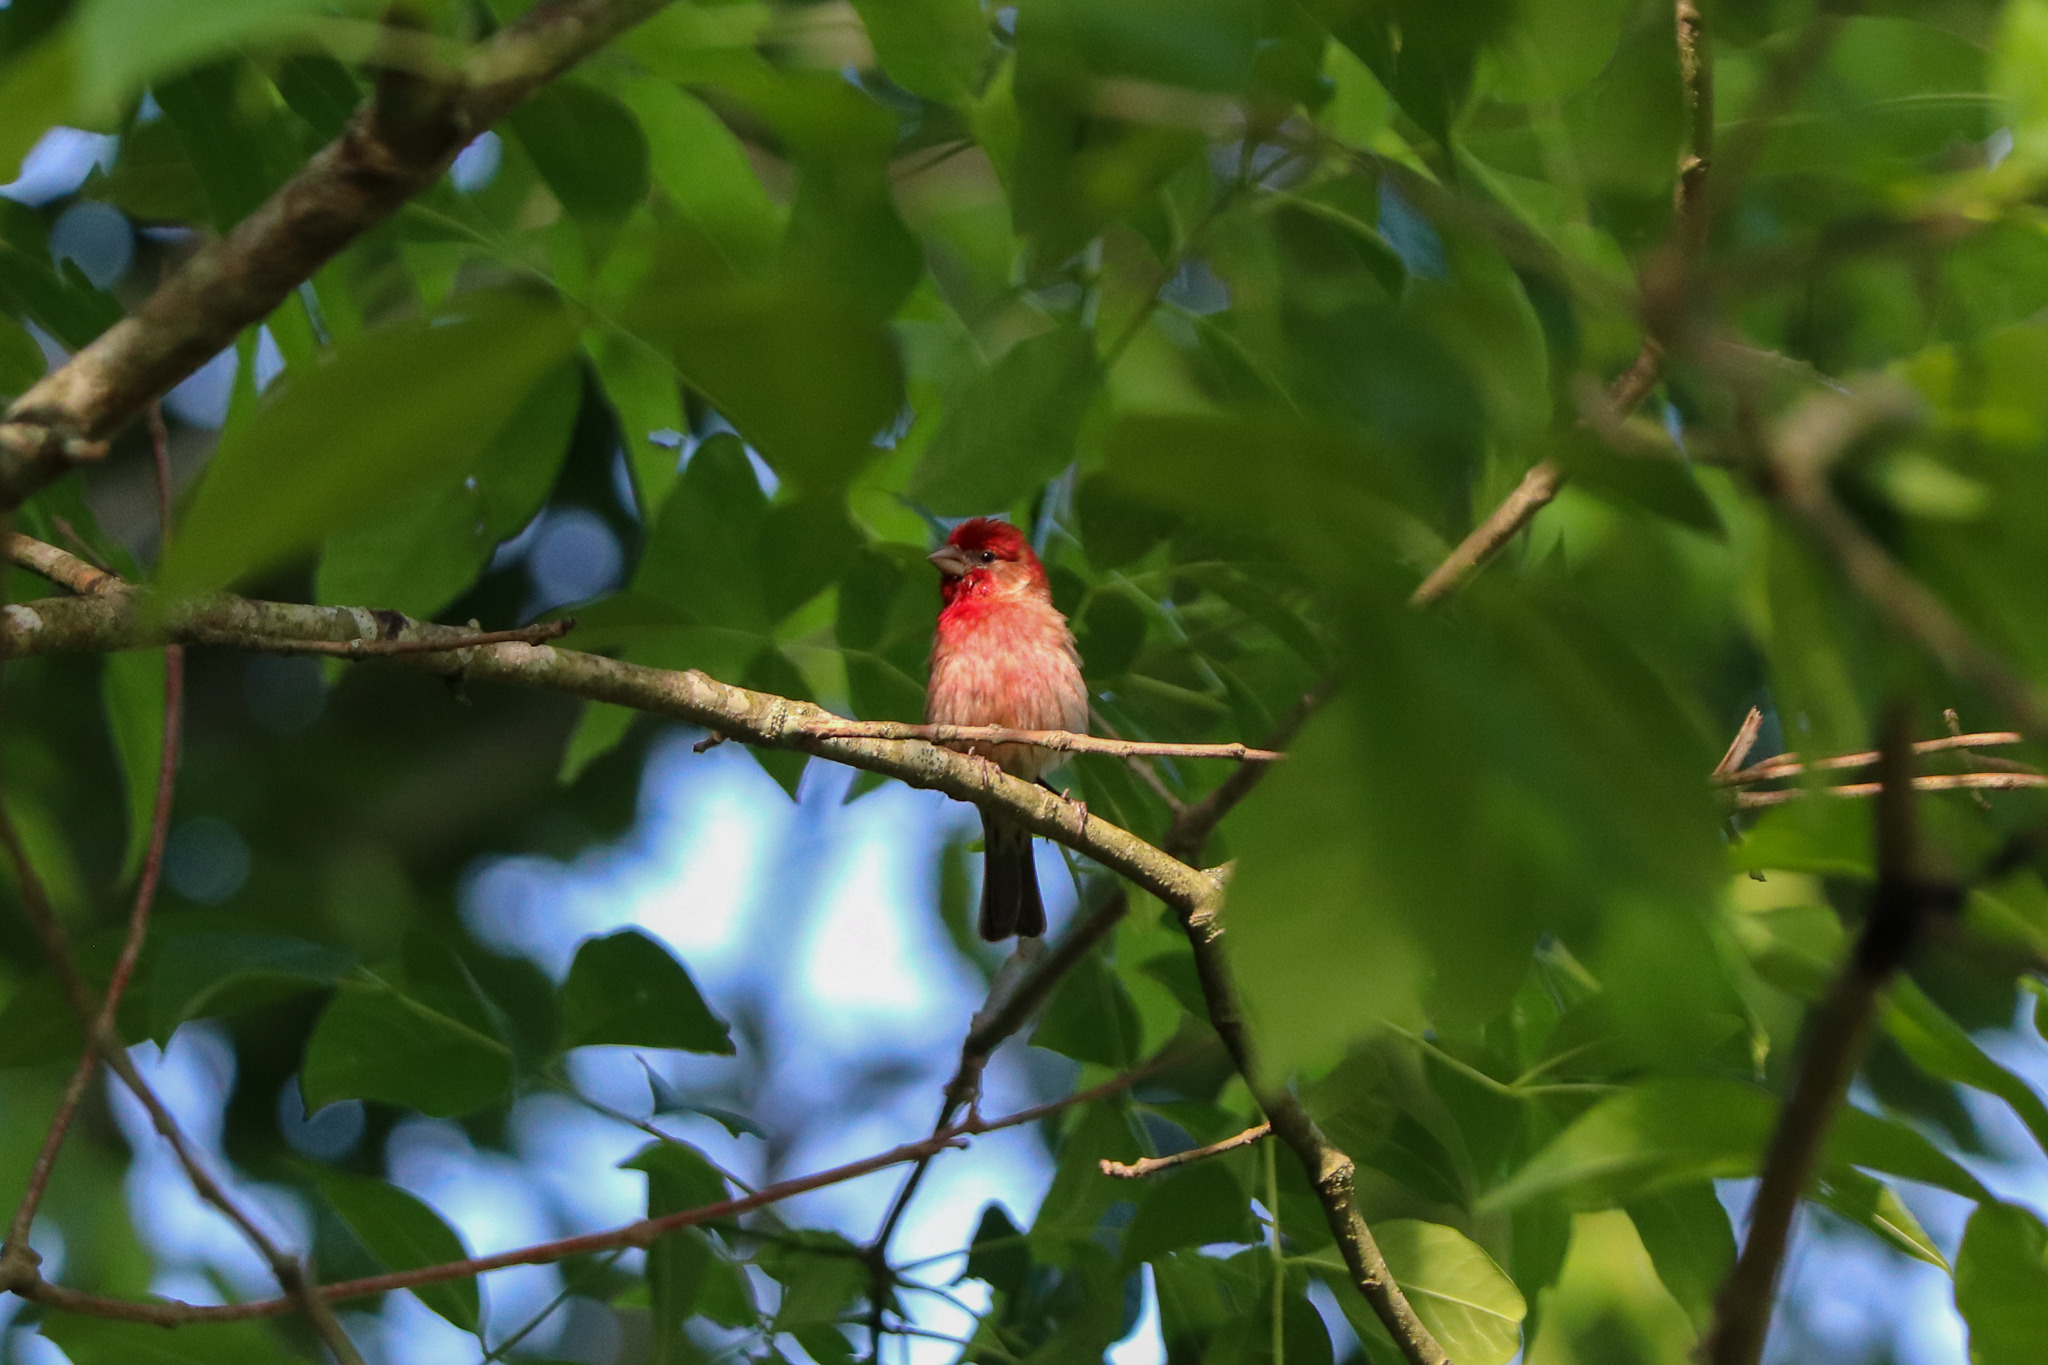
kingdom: Animalia
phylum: Chordata
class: Aves
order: Passeriformes
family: Fringillidae
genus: Haemorhous
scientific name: Haemorhous mexicanus
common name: House finch
